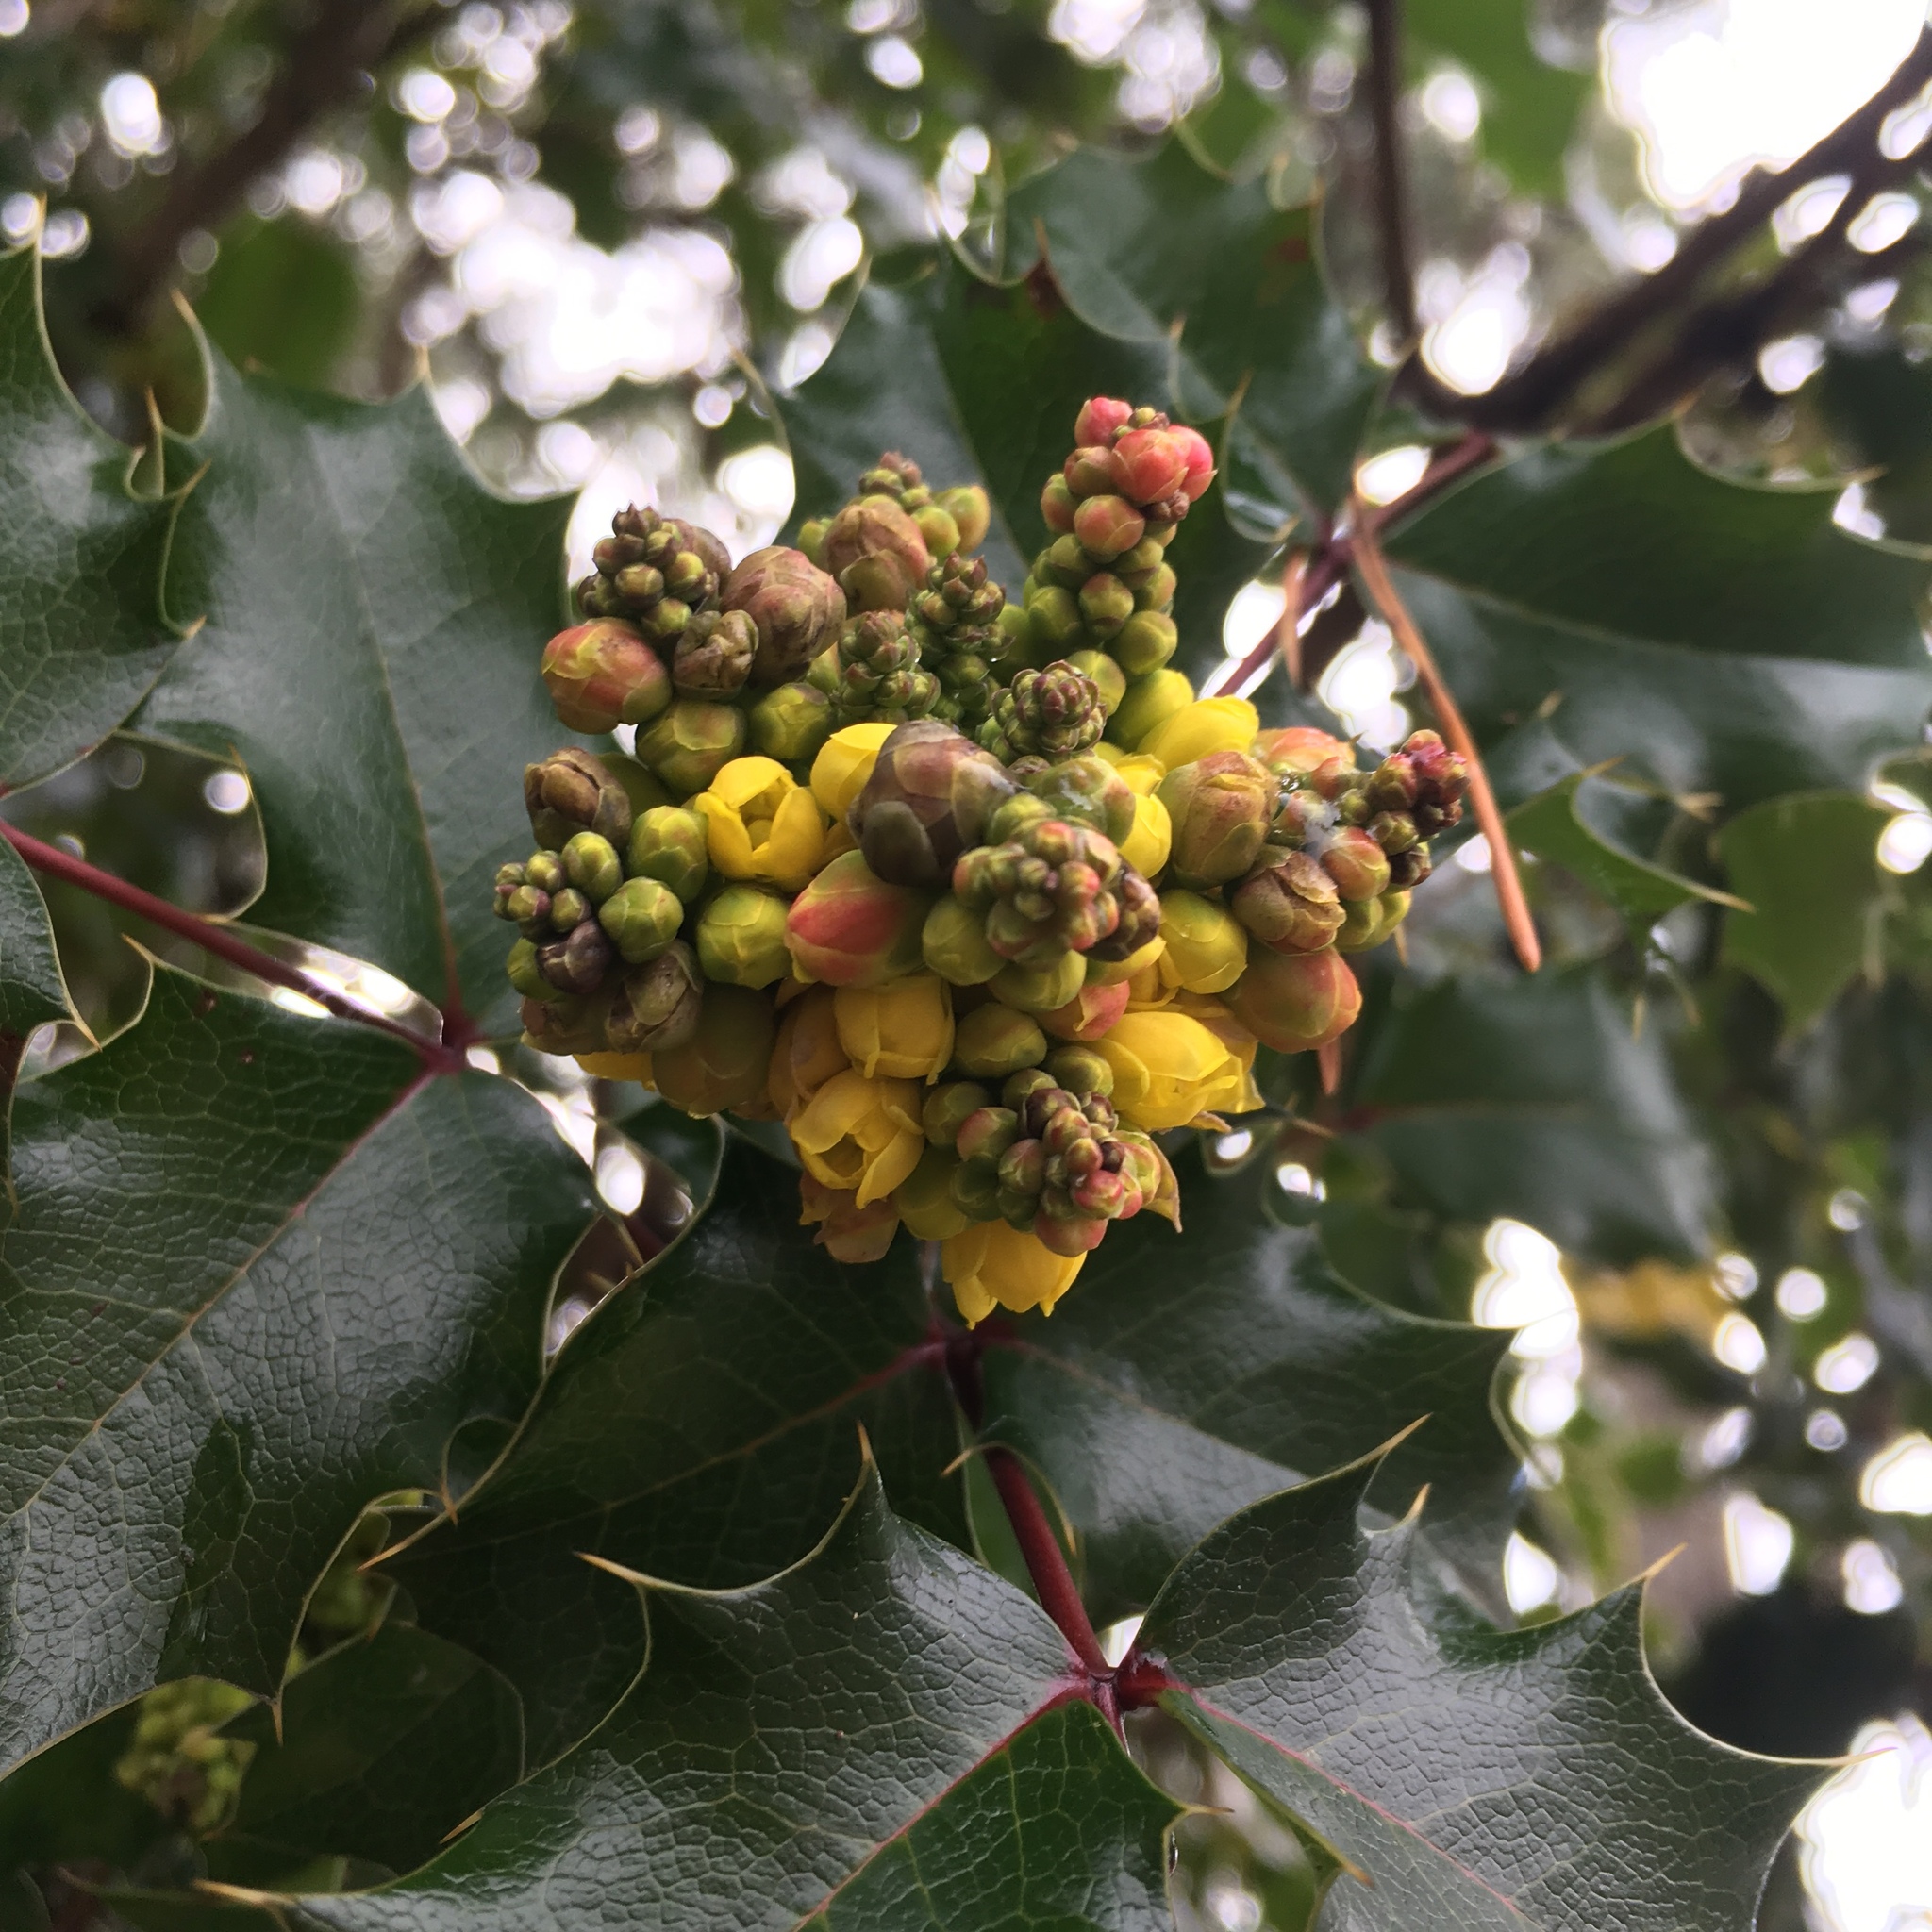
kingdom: Plantae
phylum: Tracheophyta
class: Magnoliopsida
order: Ranunculales
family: Berberidaceae
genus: Mahonia
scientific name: Mahonia aquifolium
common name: Oregon-grape
